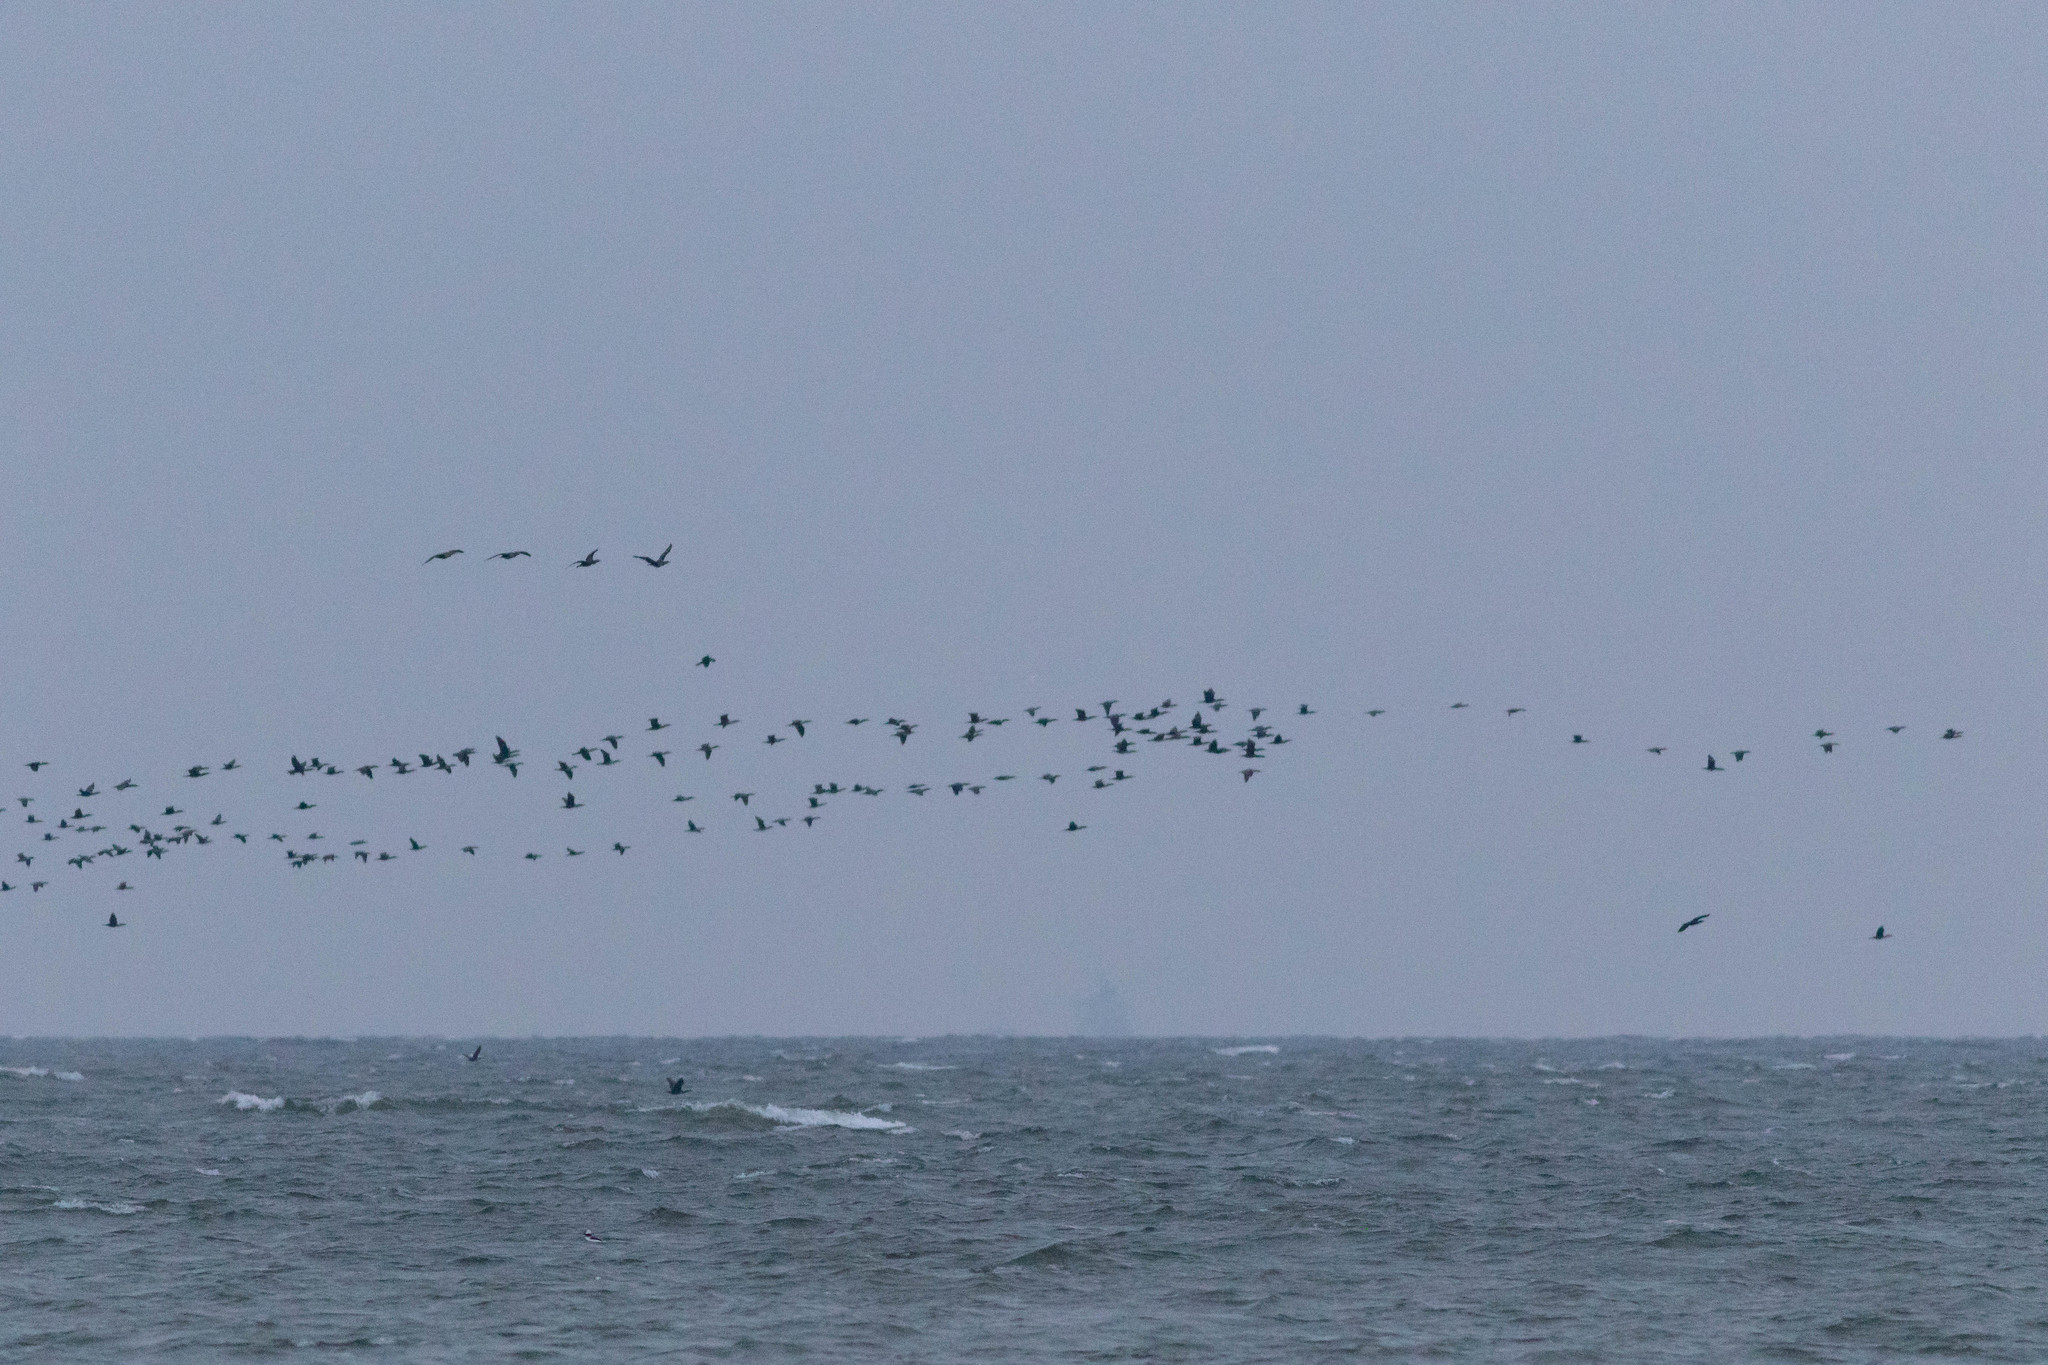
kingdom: Animalia
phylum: Chordata
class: Aves
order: Suliformes
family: Phalacrocoracidae
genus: Phalacrocorax
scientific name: Phalacrocorax auritus
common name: Double-crested cormorant
